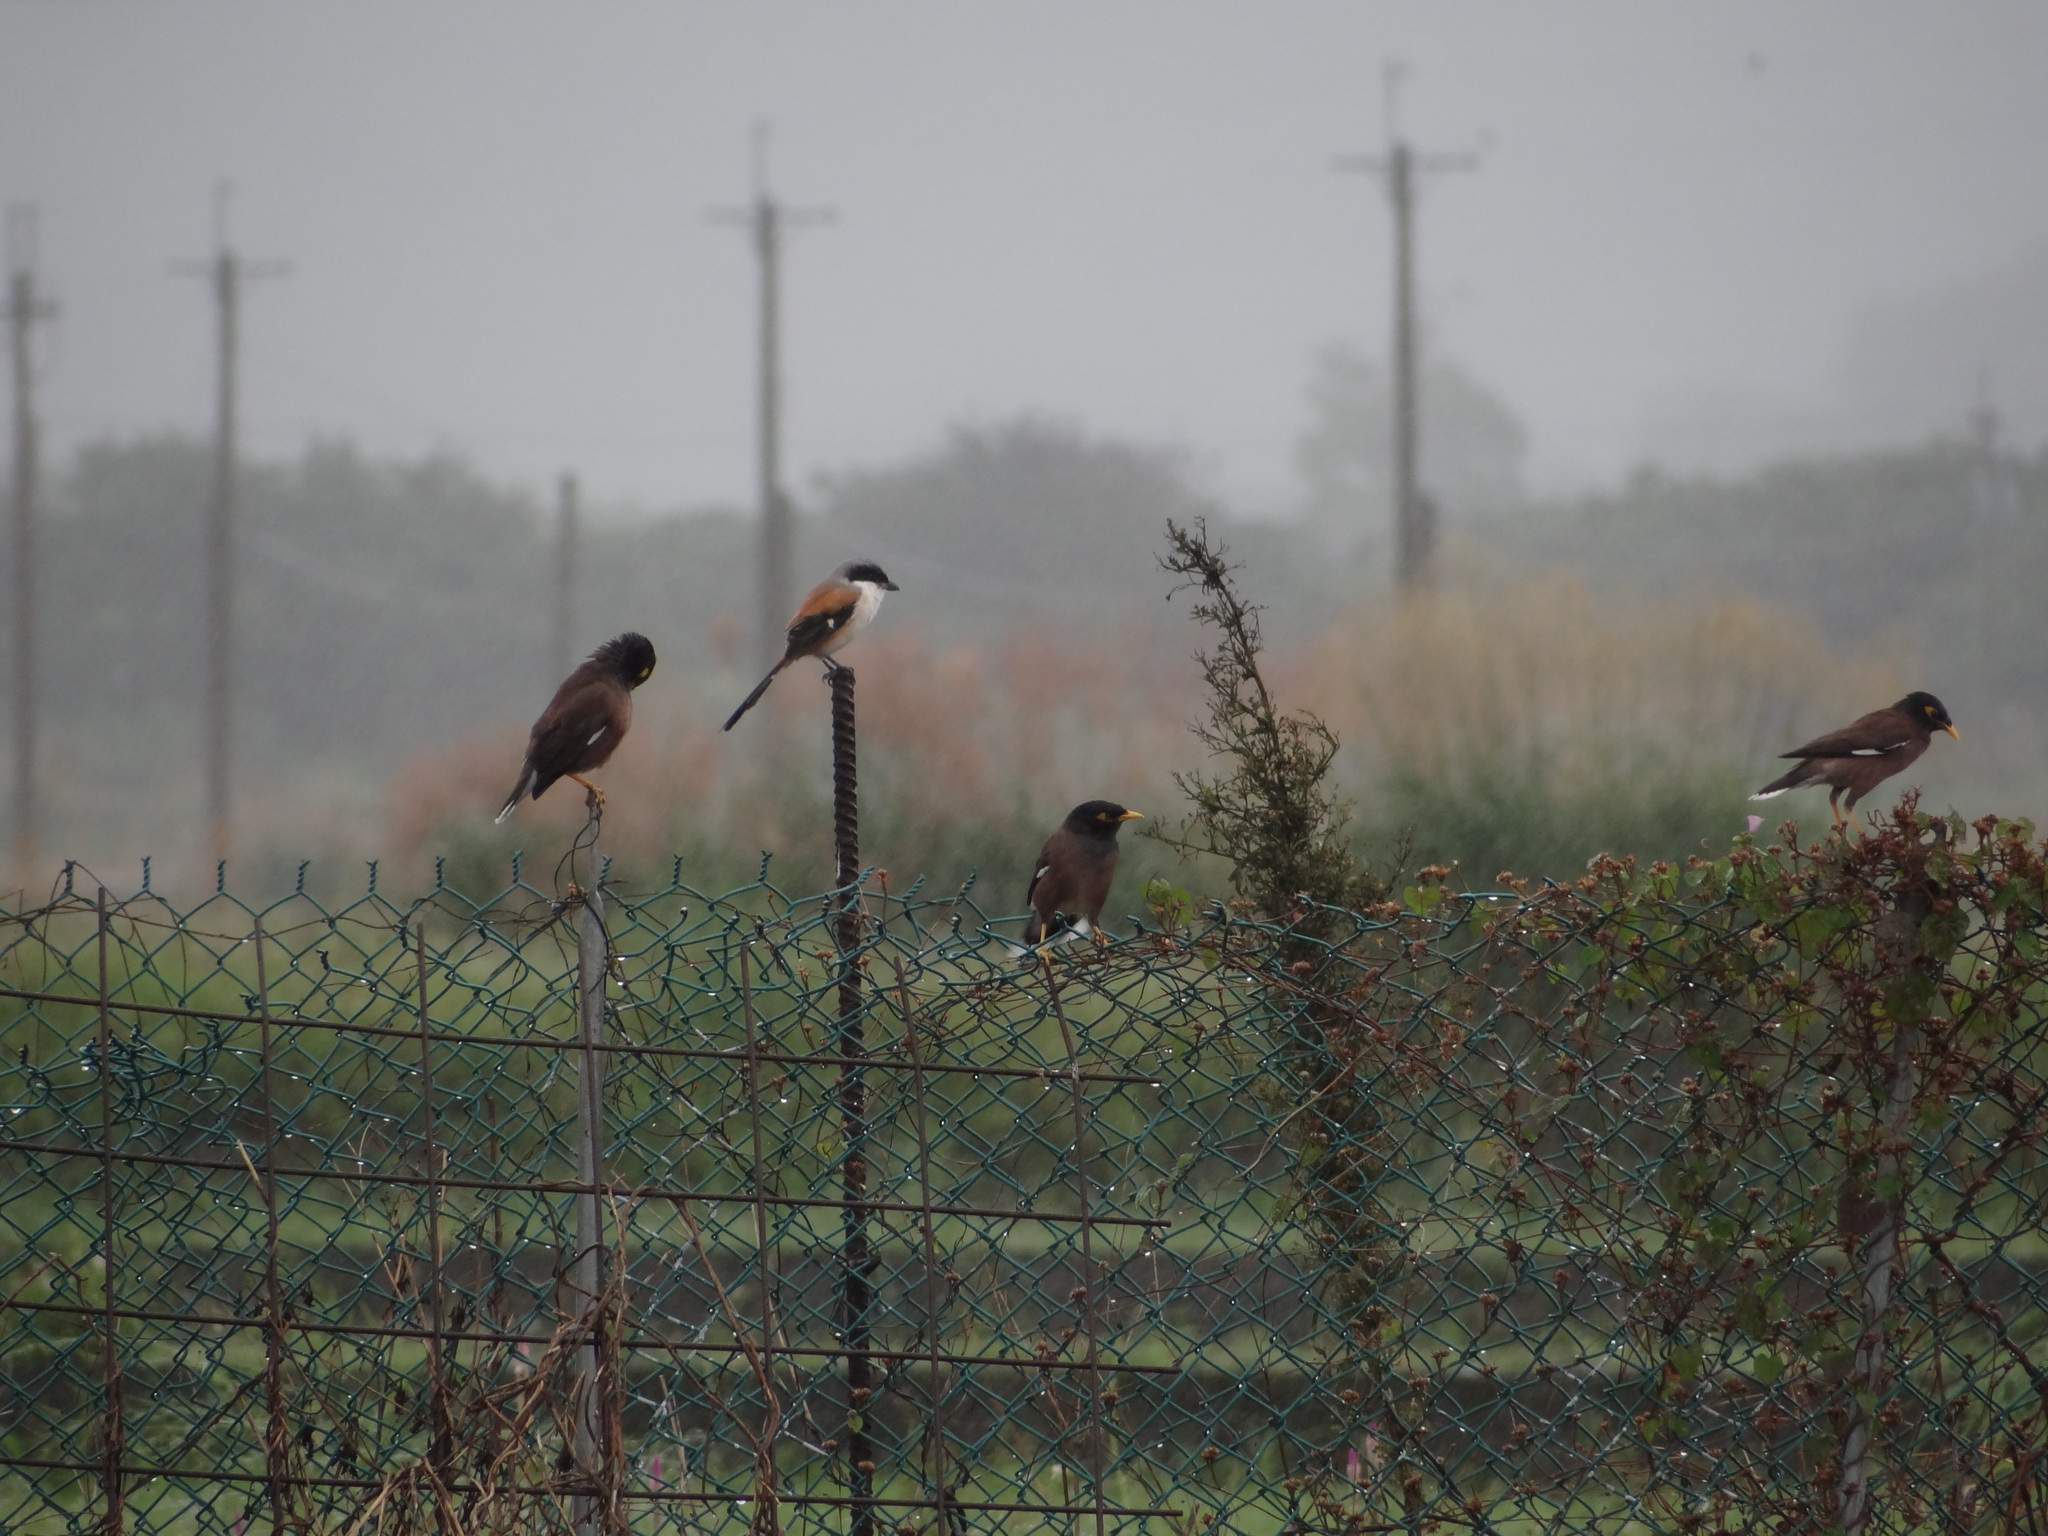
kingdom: Animalia
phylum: Chordata
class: Aves
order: Passeriformes
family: Laniidae
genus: Lanius
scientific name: Lanius schach
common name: Long-tailed shrike
